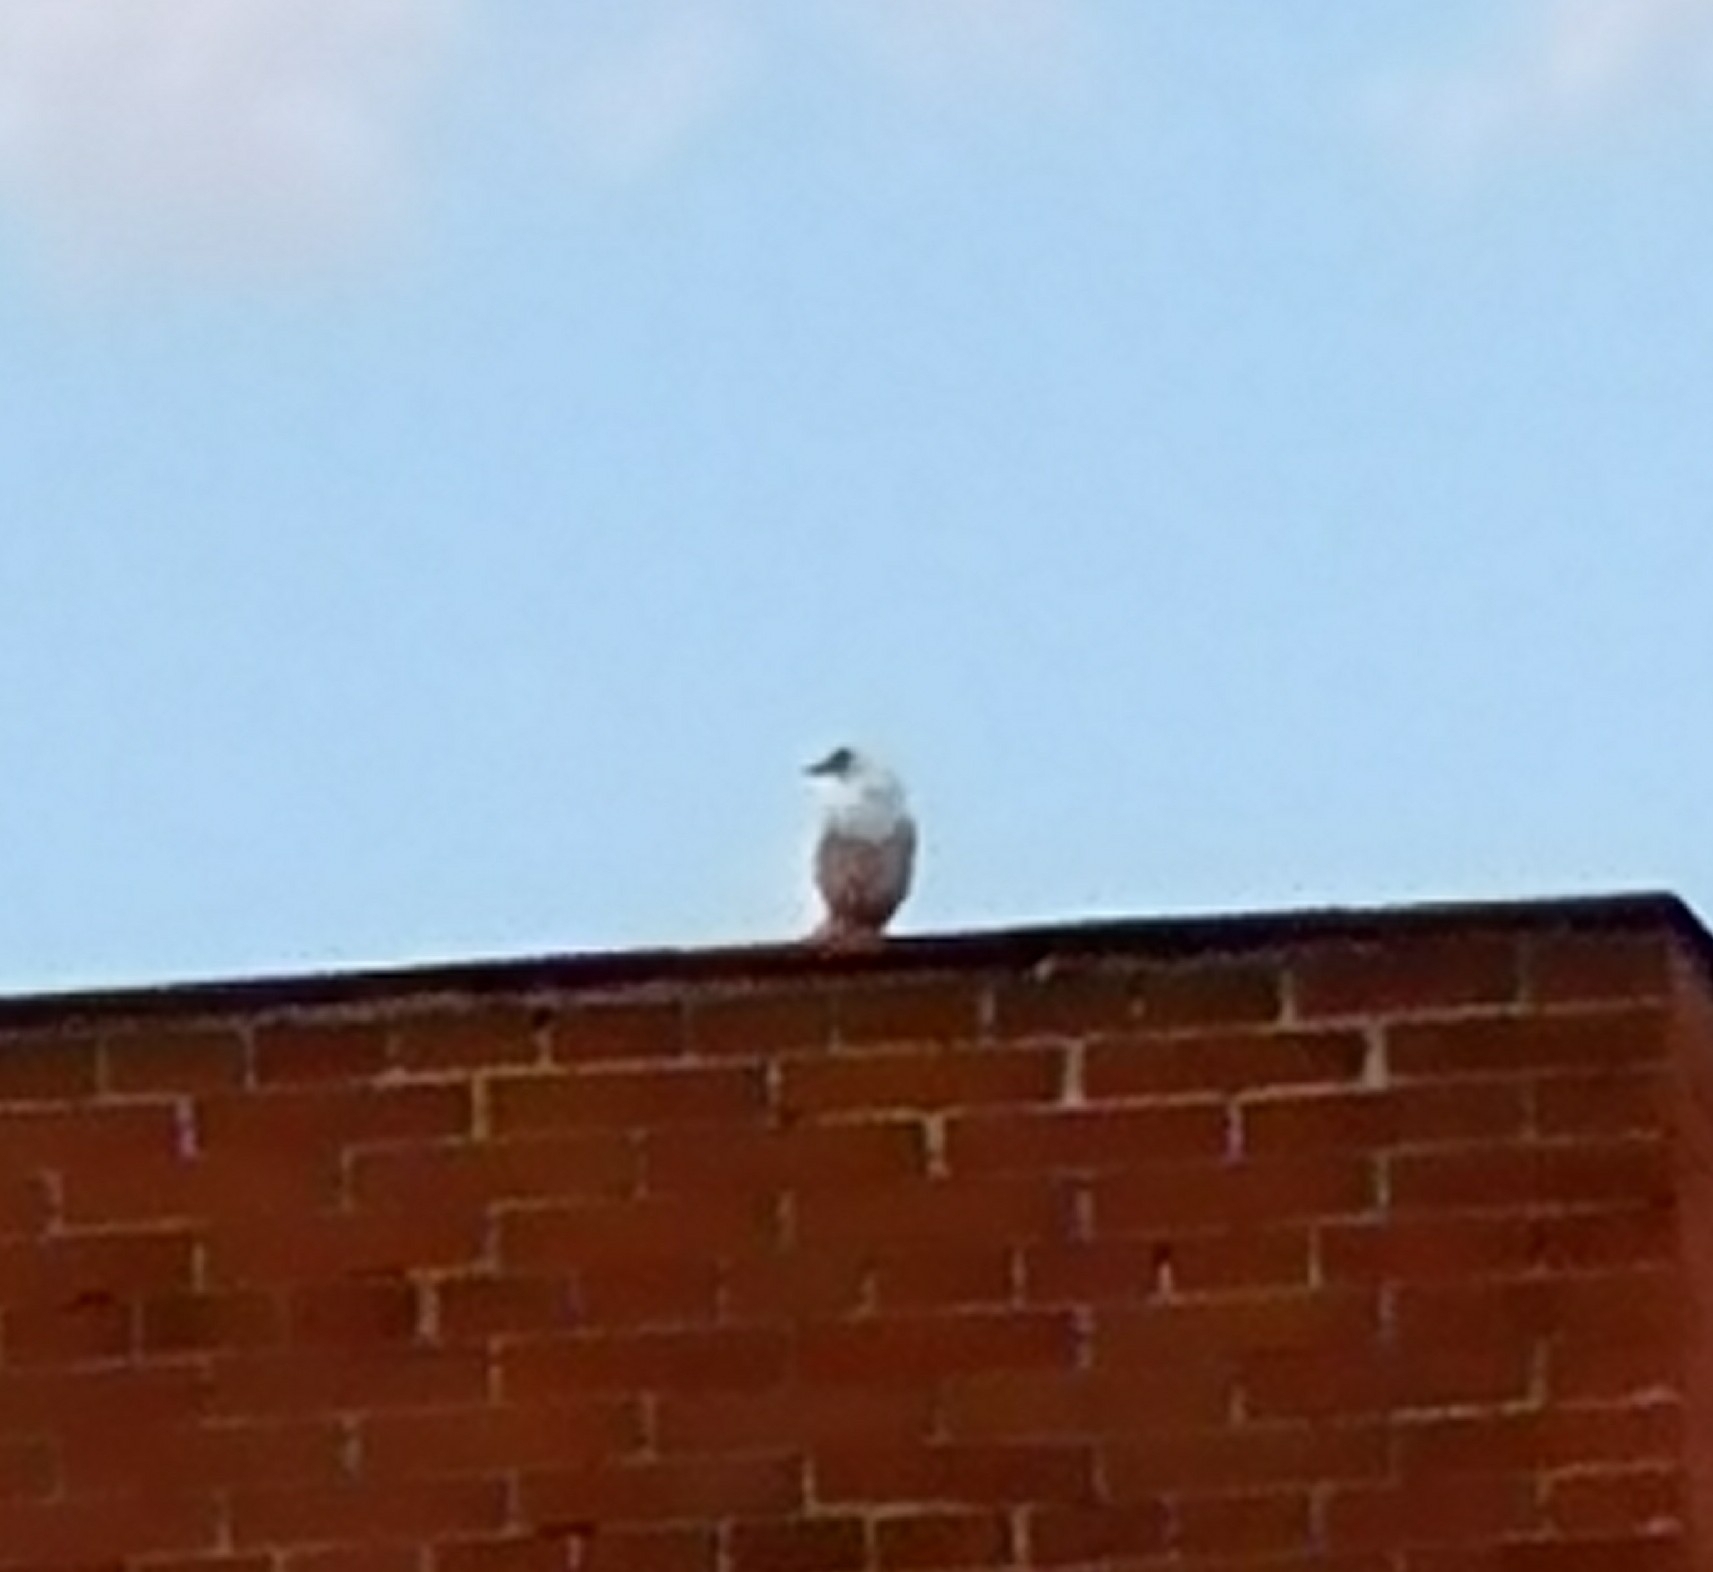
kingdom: Animalia
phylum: Chordata
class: Aves
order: Passeriformes
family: Corvidae
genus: Pica
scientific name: Pica pica
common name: Eurasian magpie
